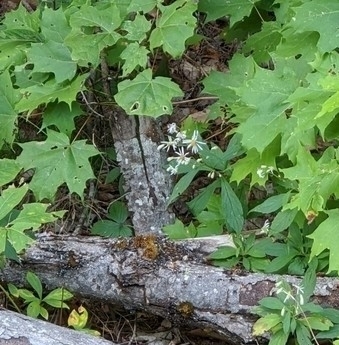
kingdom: Plantae
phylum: Tracheophyta
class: Magnoliopsida
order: Asterales
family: Asteraceae
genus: Oclemena
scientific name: Oclemena acuminata
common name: Mountain aster
